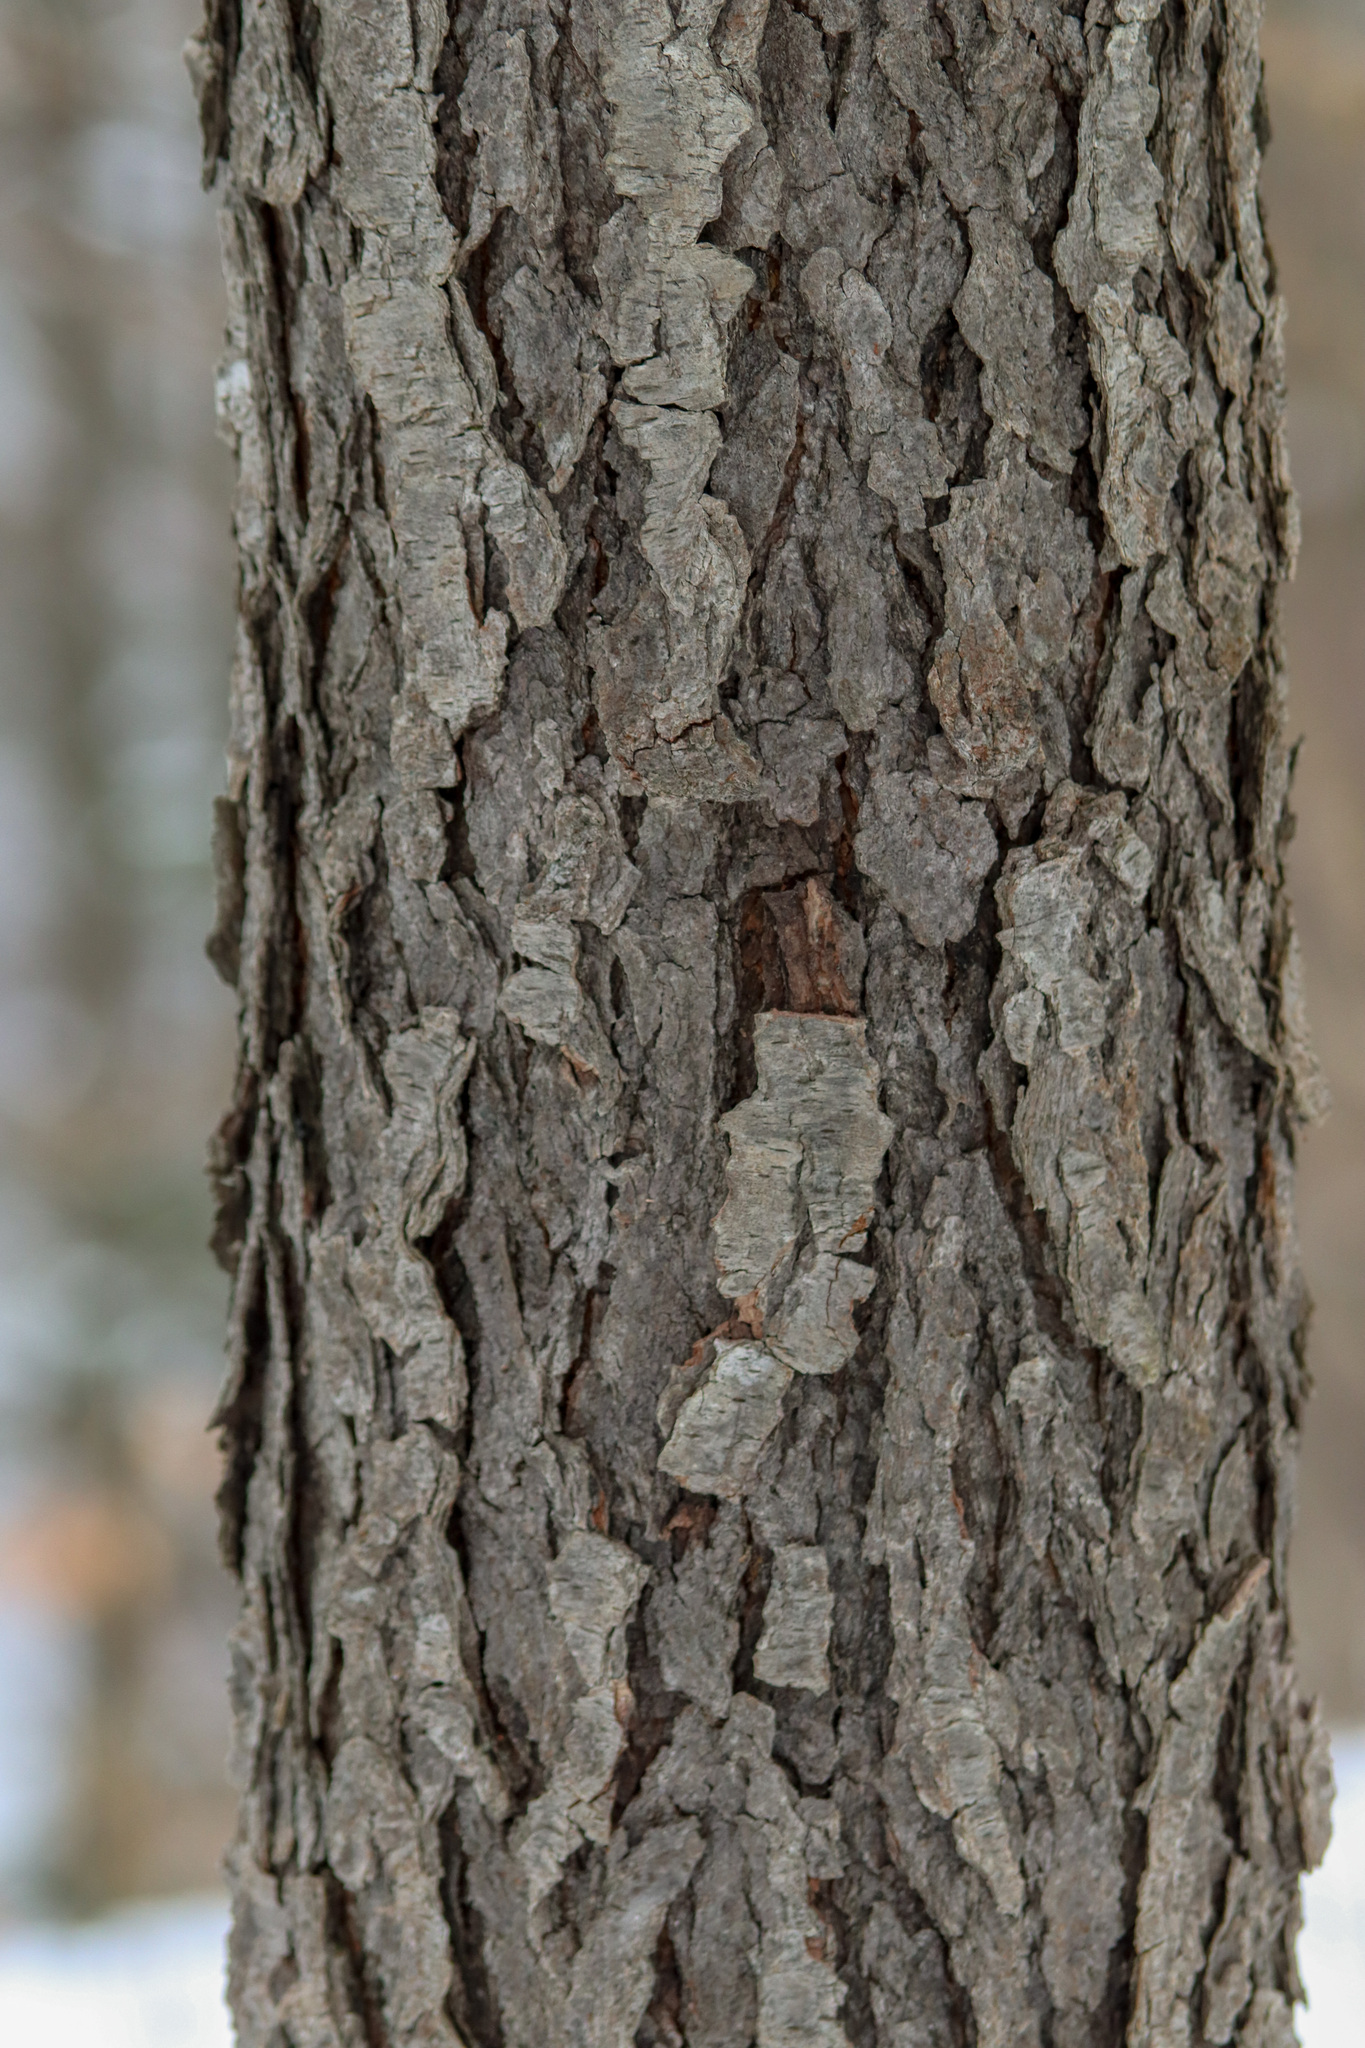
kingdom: Plantae
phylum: Tracheophyta
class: Magnoliopsida
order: Rosales
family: Rosaceae
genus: Prunus
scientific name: Prunus serotina
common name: Black cherry
